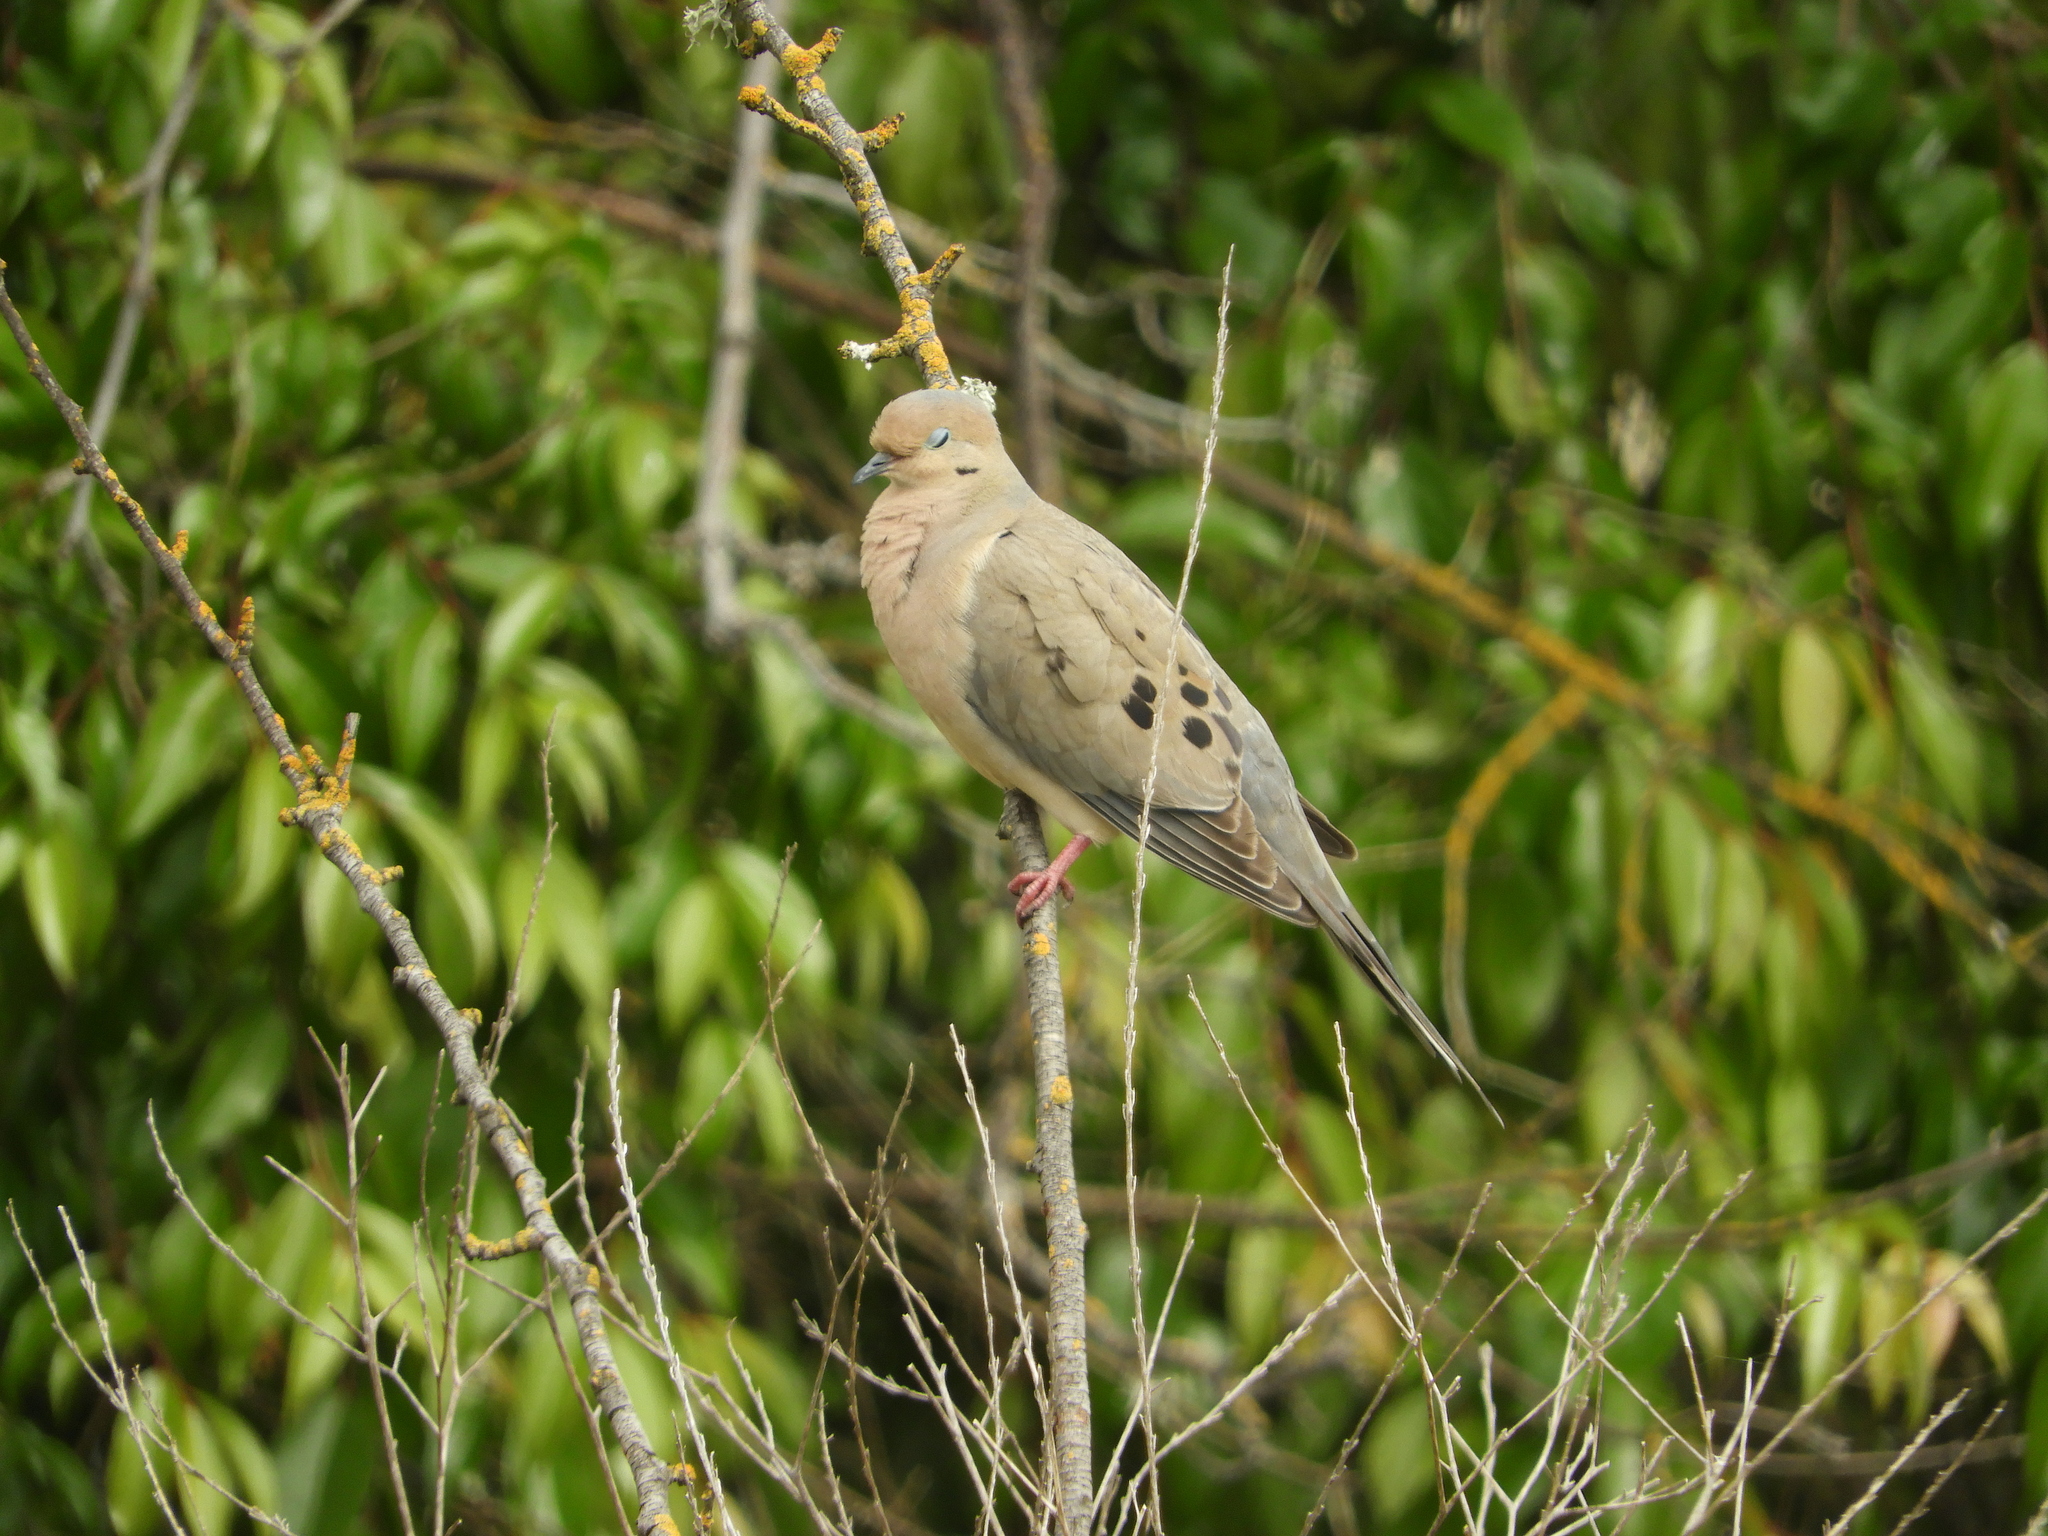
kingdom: Animalia
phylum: Chordata
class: Aves
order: Columbiformes
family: Columbidae
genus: Zenaida
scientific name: Zenaida macroura
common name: Mourning dove
